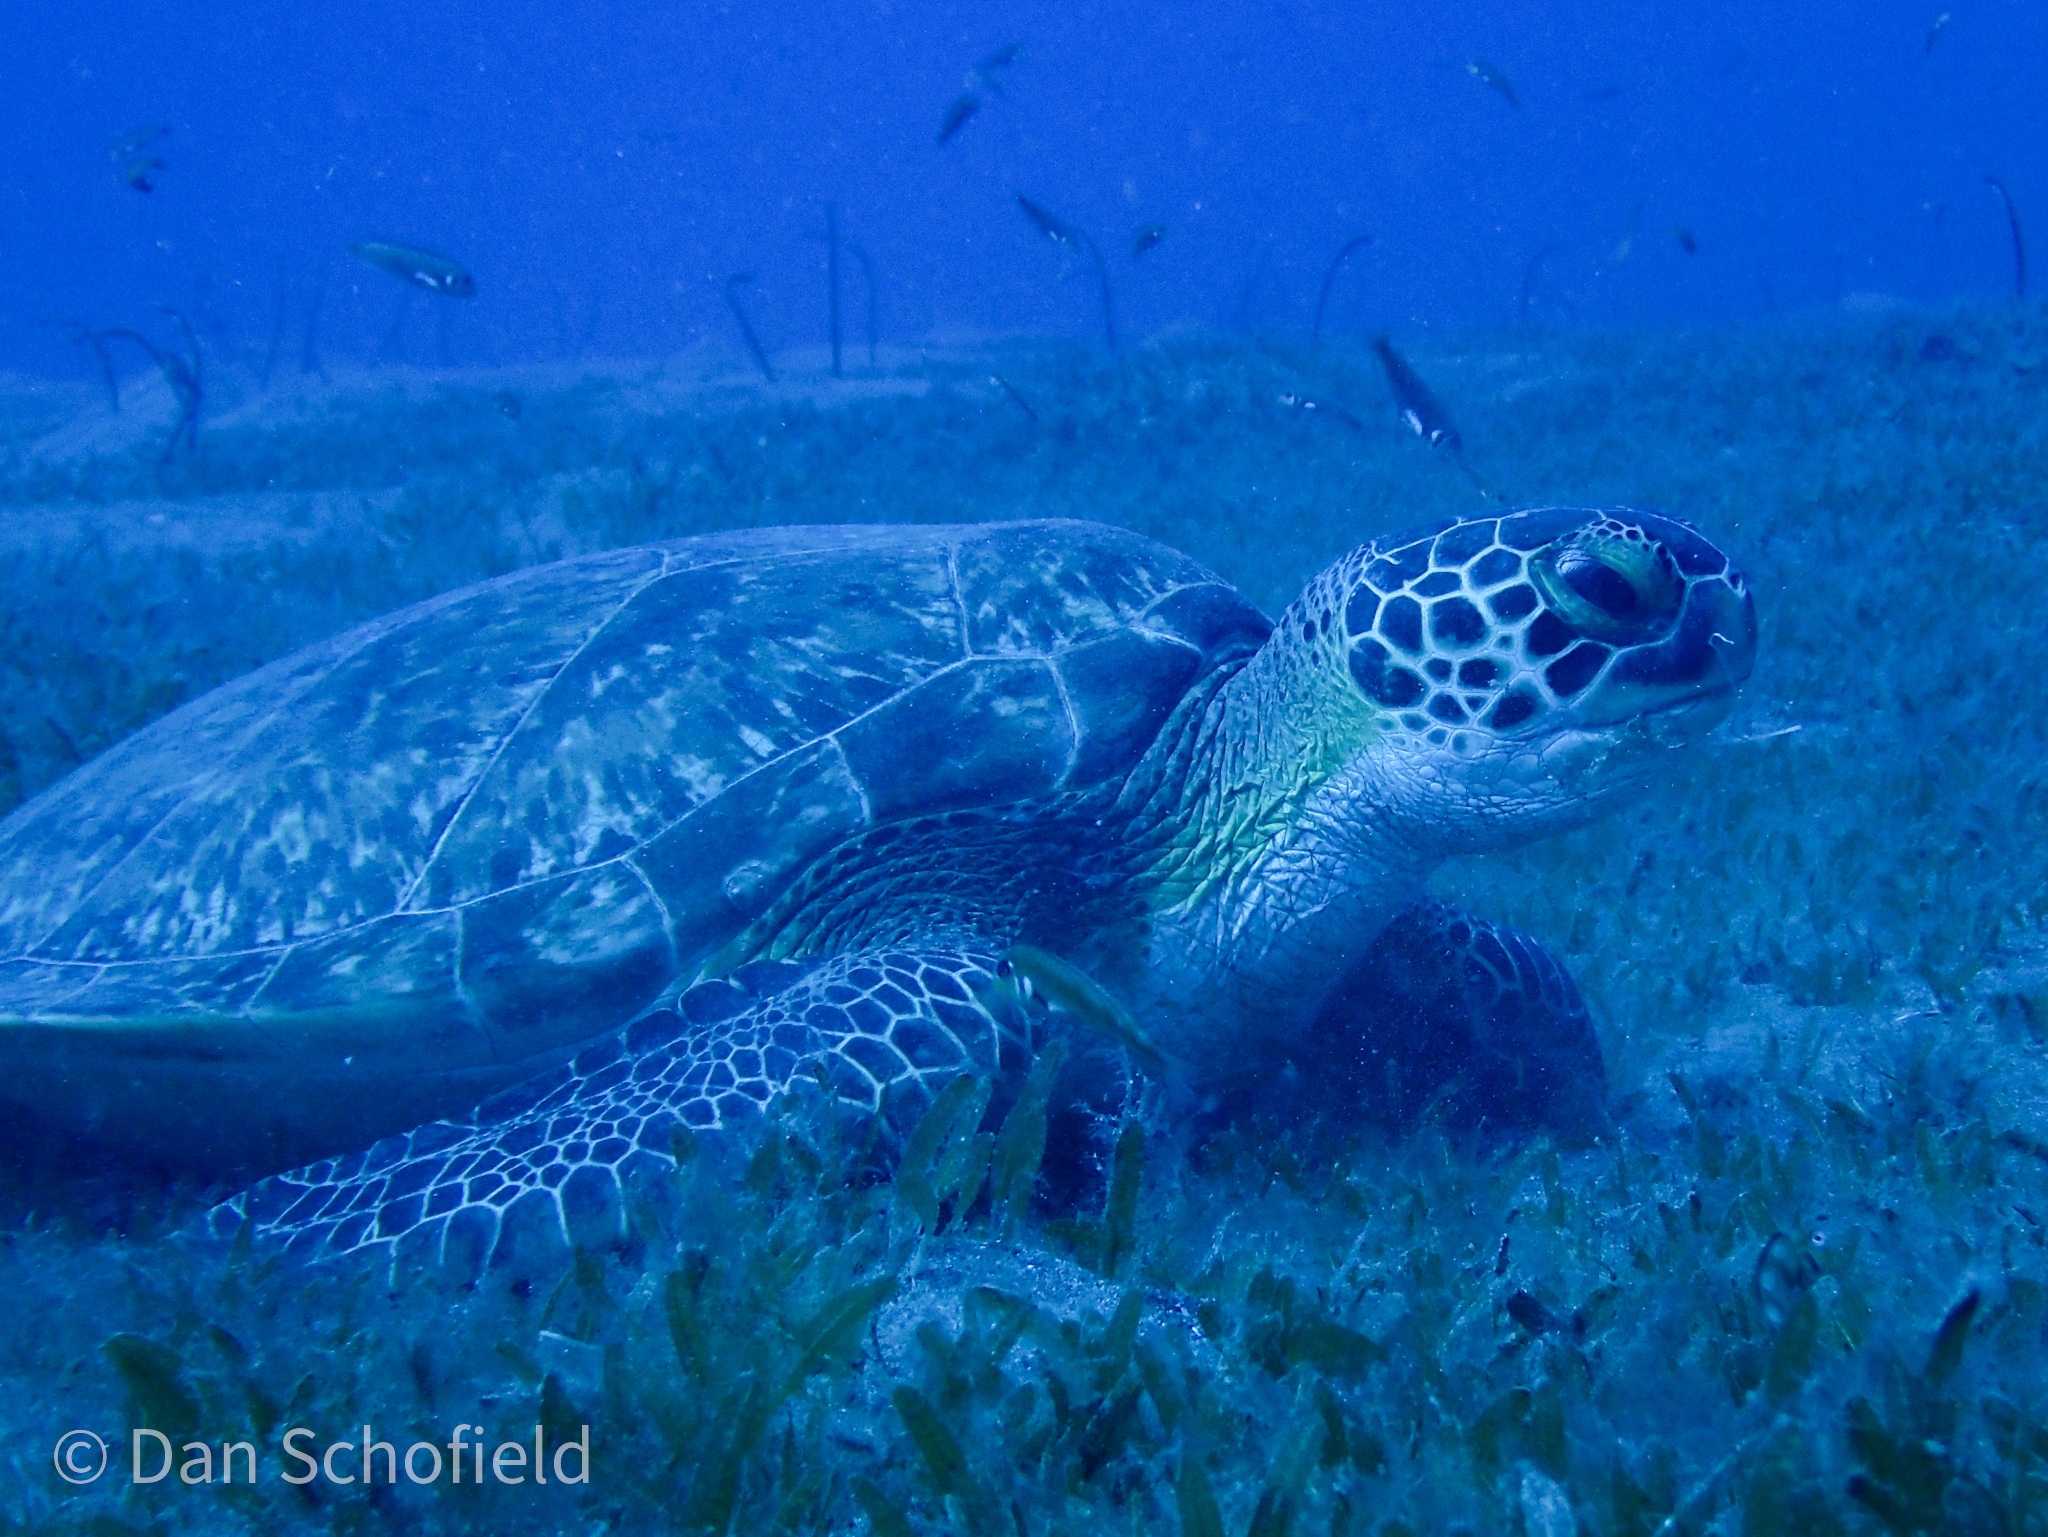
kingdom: Animalia
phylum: Chordata
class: Testudines
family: Cheloniidae
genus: Chelonia
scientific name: Chelonia mydas
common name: Green turtle
